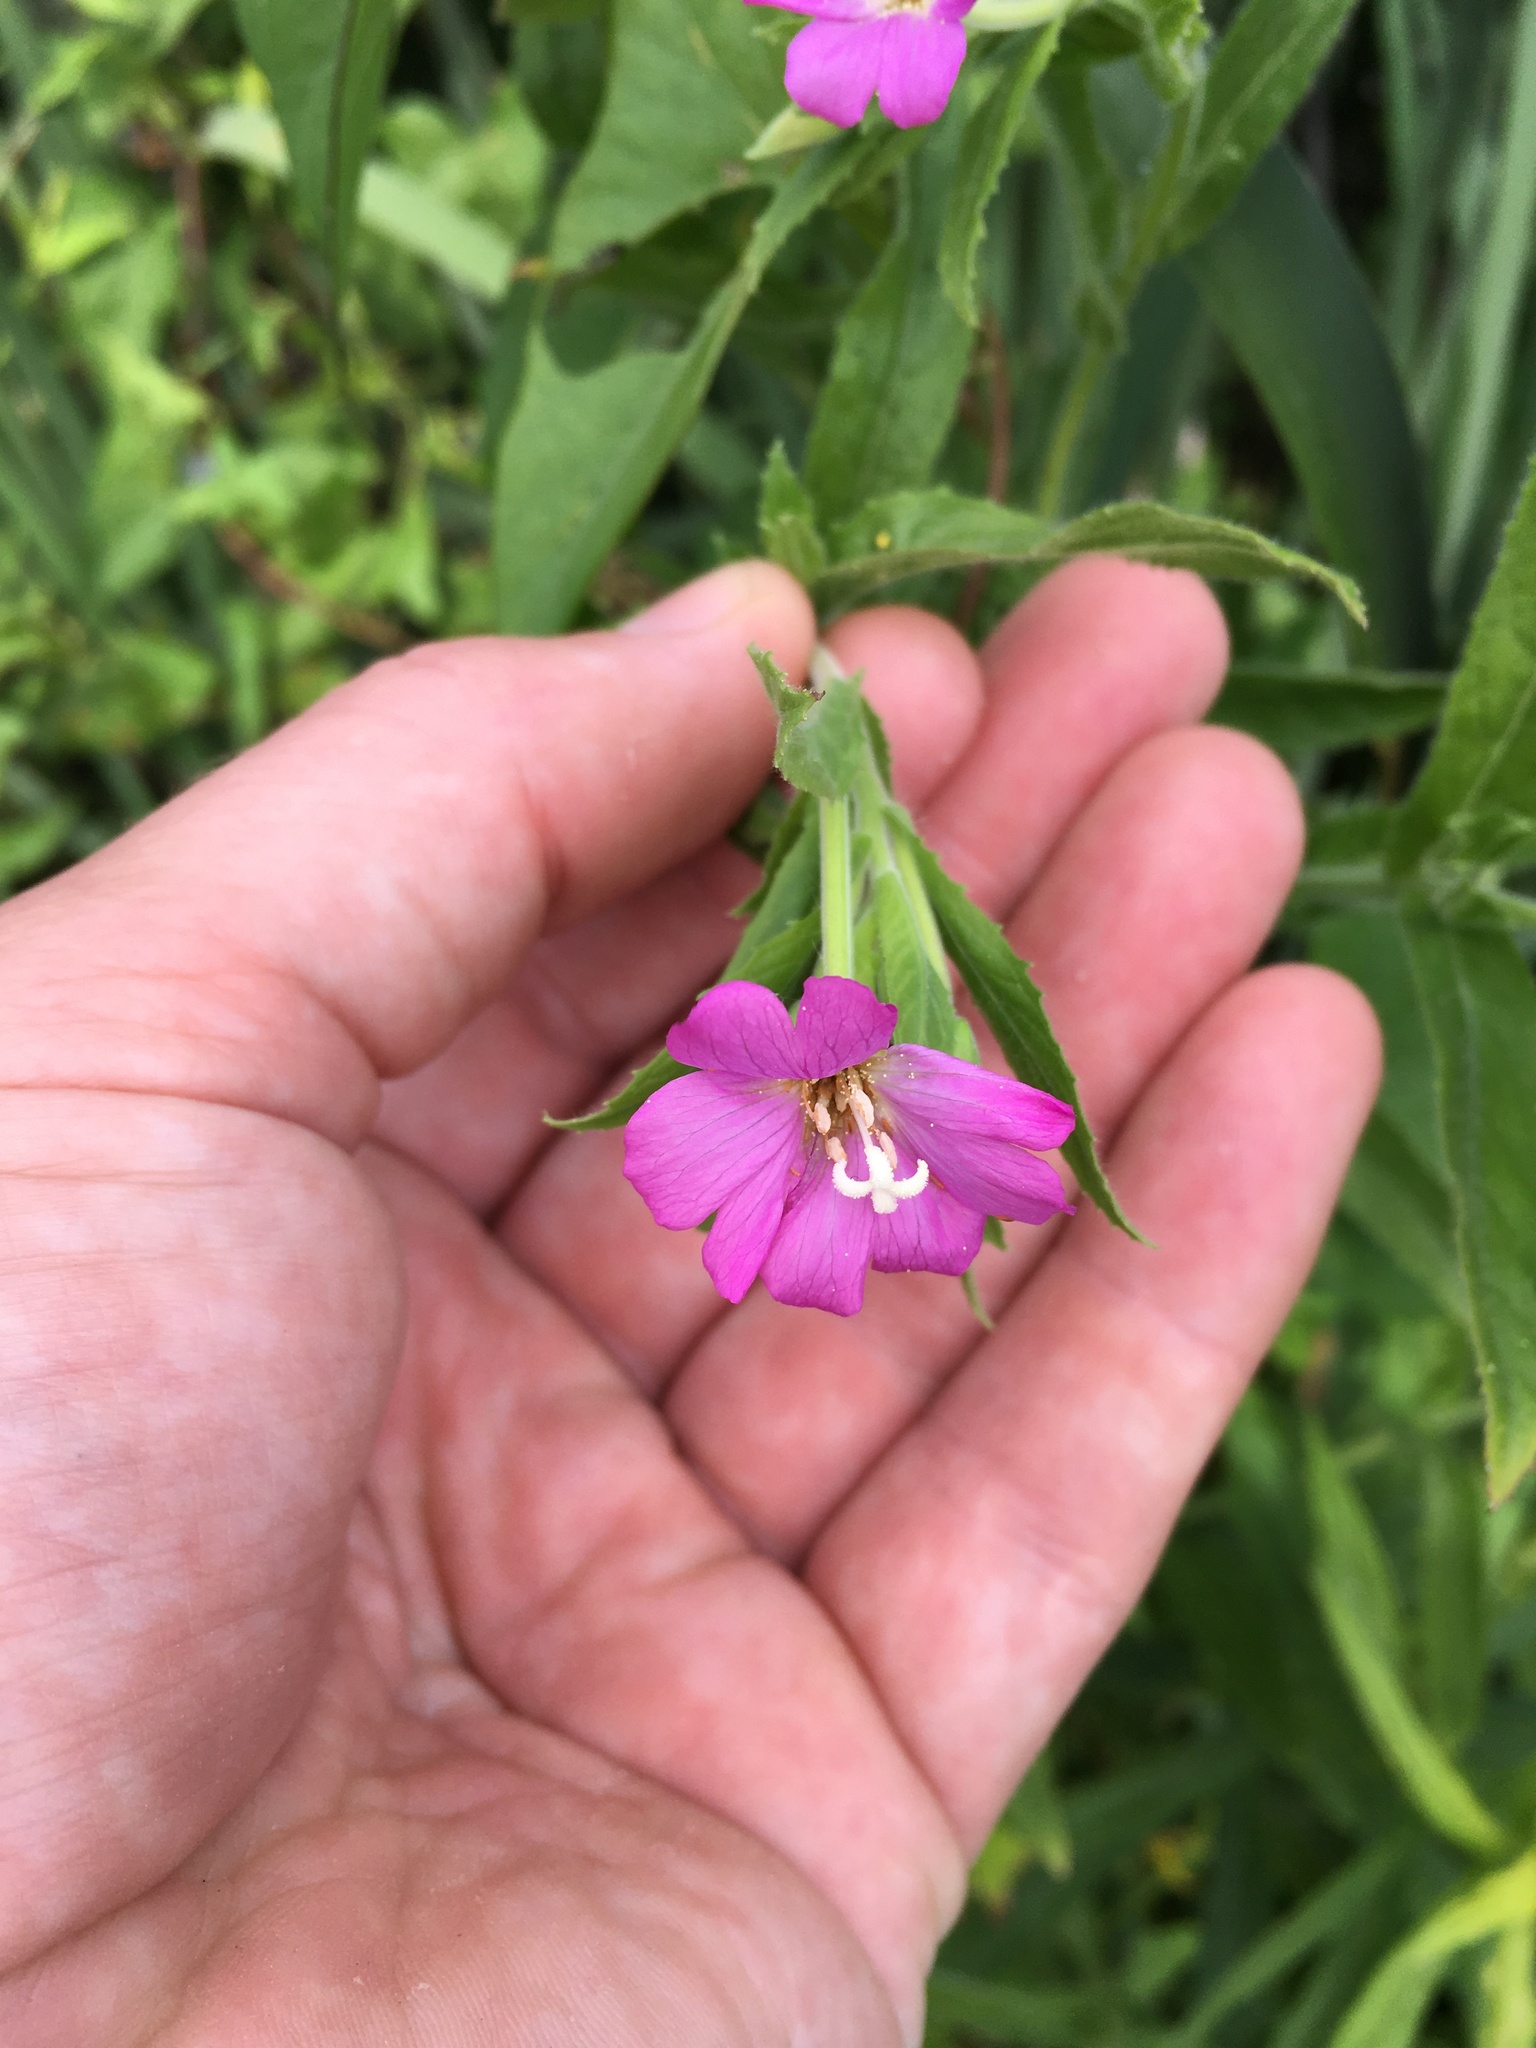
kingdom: Plantae
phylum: Tracheophyta
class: Magnoliopsida
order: Myrtales
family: Onagraceae
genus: Epilobium
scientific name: Epilobium hirsutum
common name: Great willowherb
